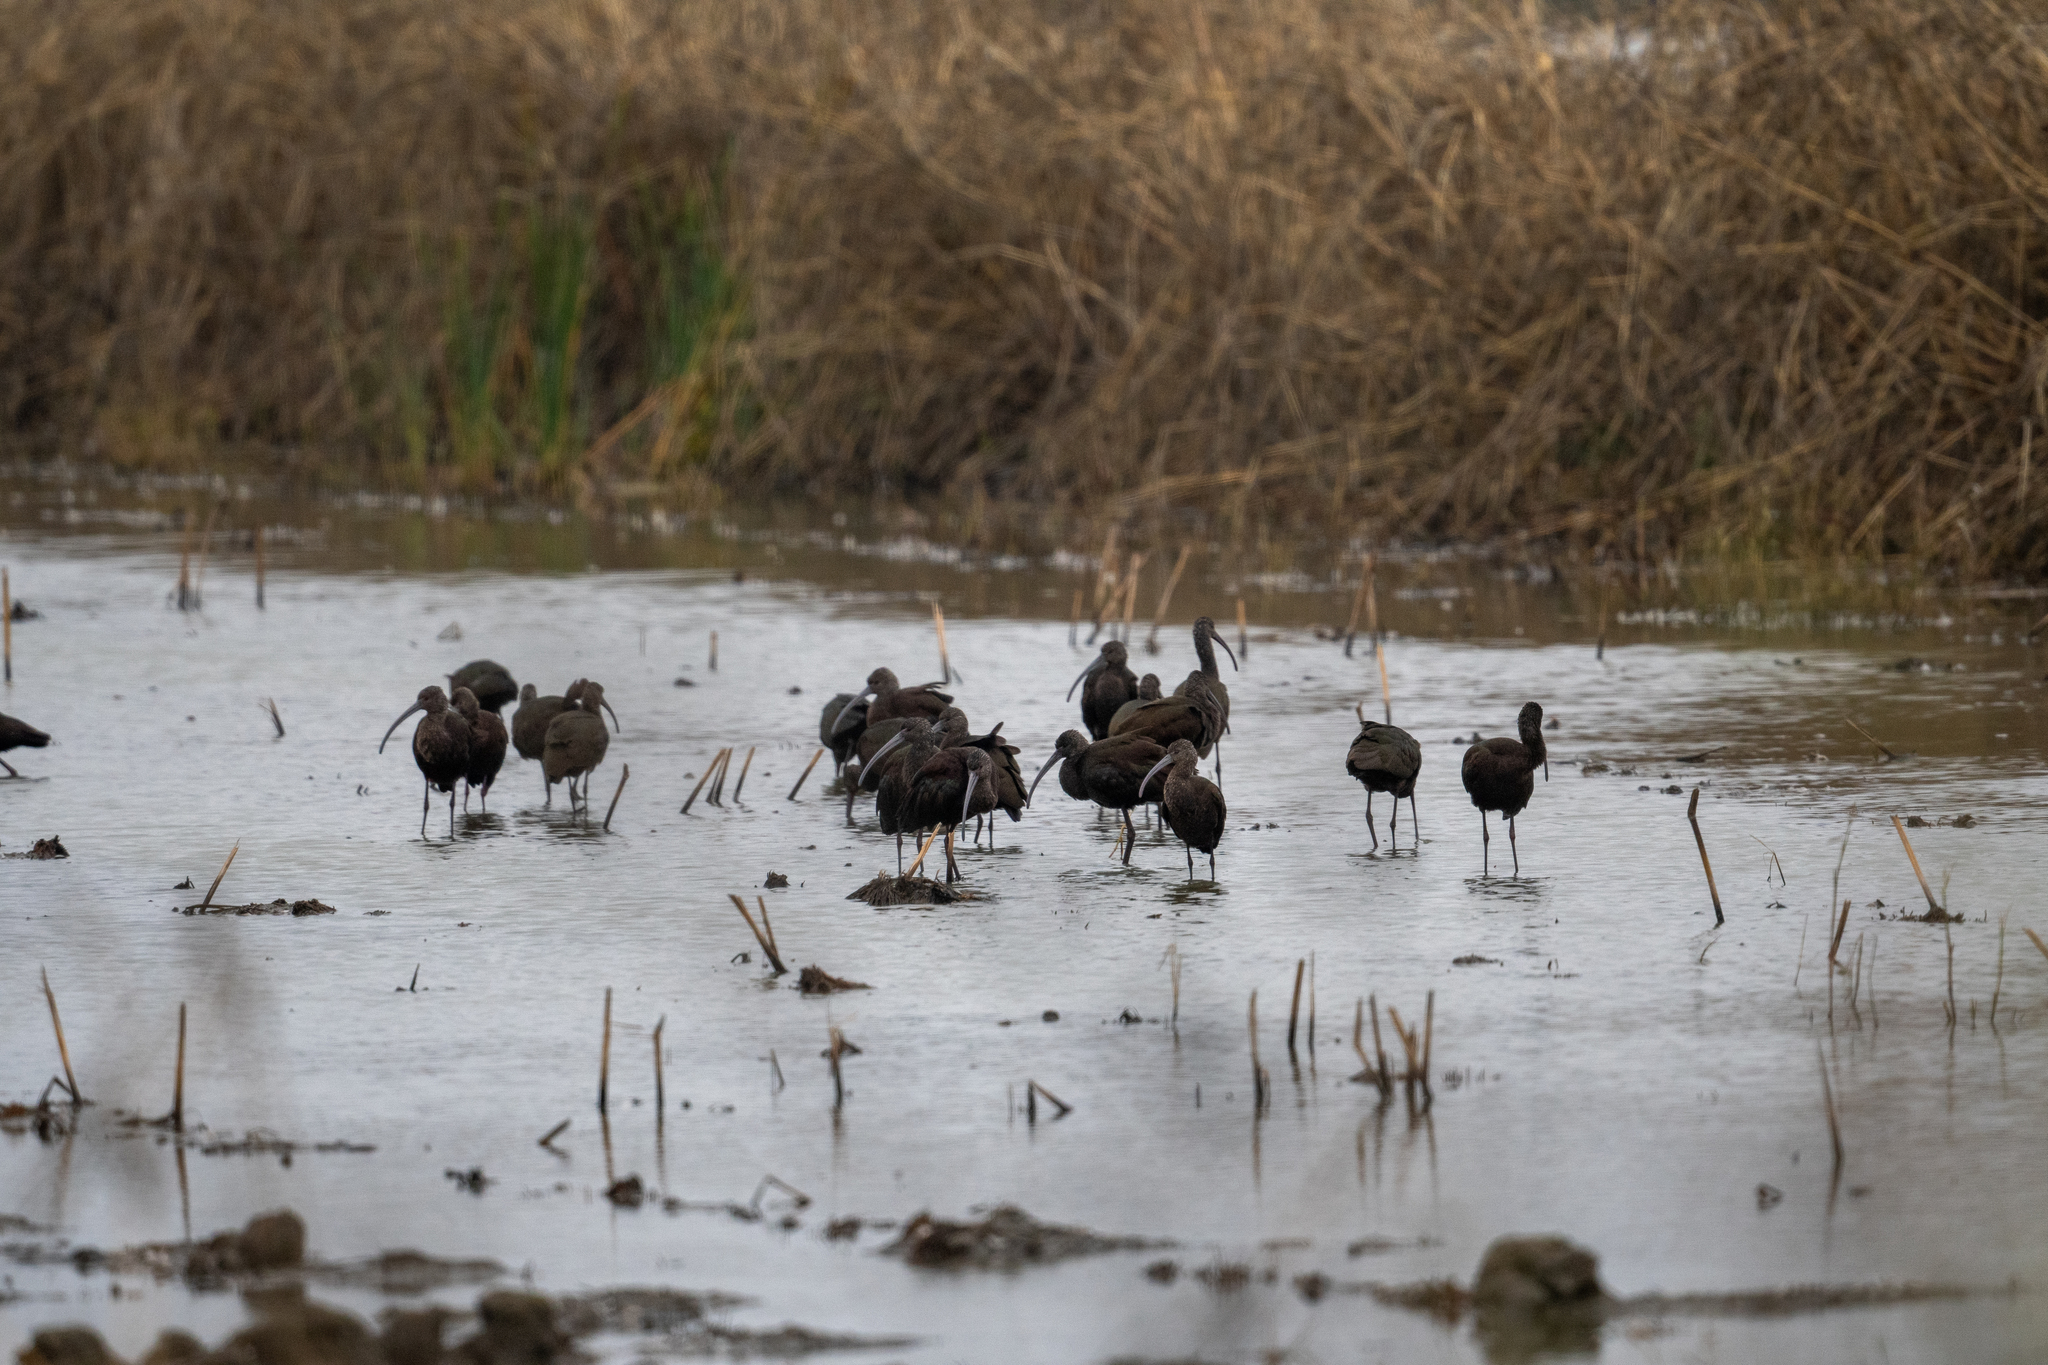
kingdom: Animalia
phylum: Chordata
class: Aves
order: Pelecaniformes
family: Threskiornithidae
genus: Plegadis
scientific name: Plegadis chihi
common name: White-faced ibis
